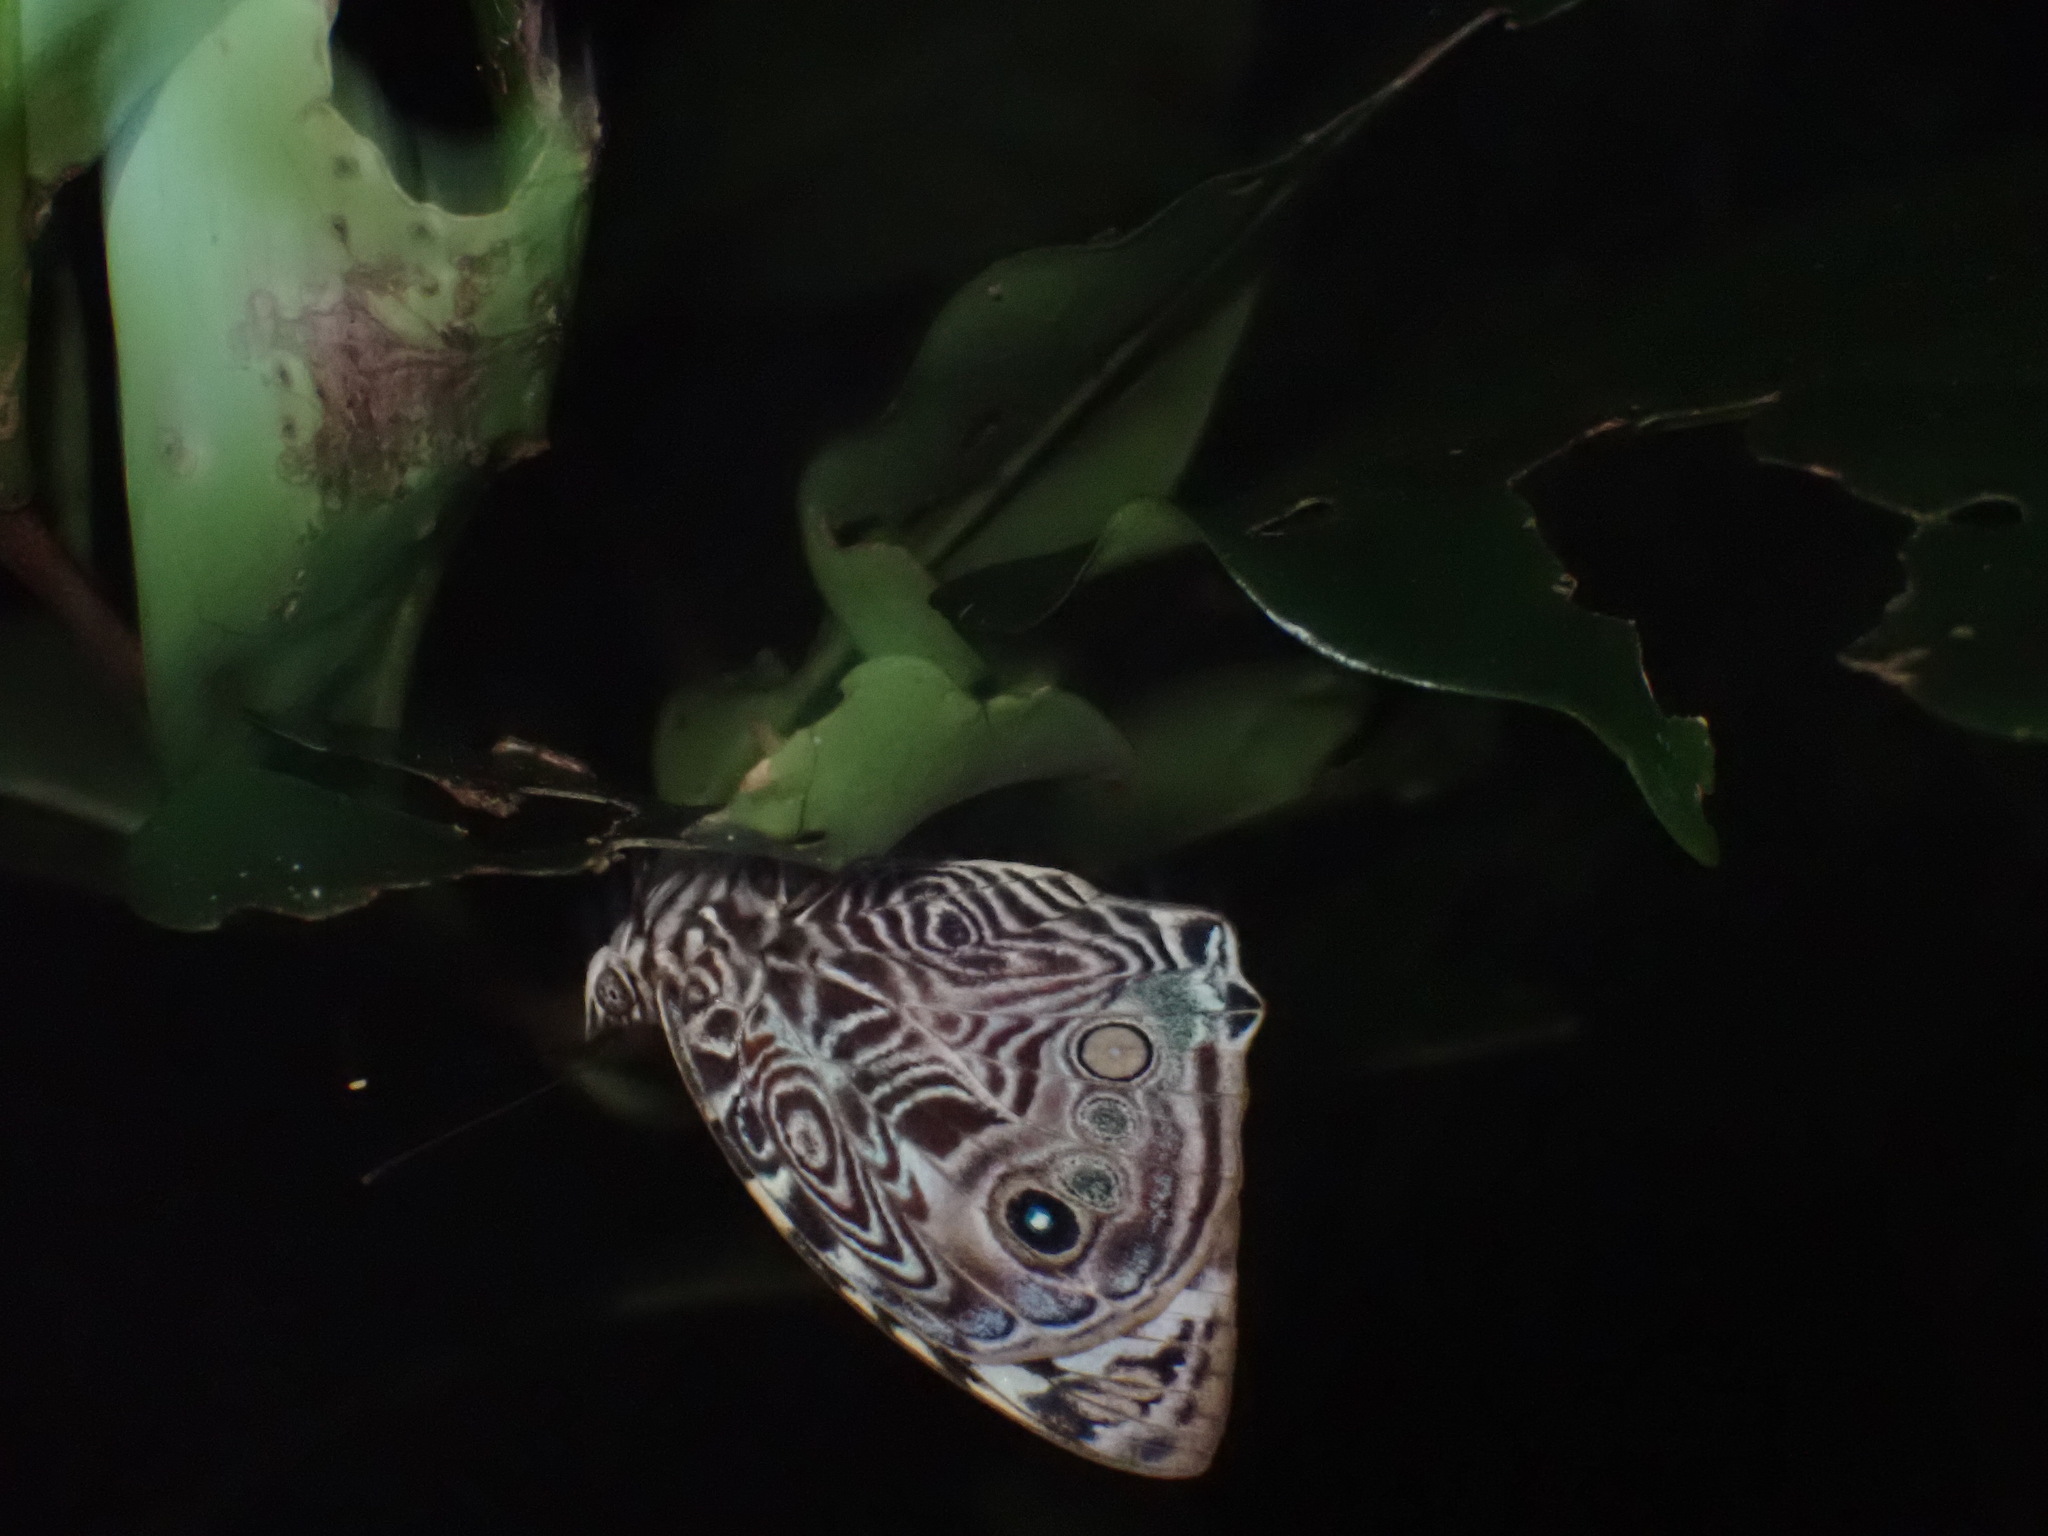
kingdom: Animalia
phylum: Arthropoda
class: Insecta
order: Lepidoptera
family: Nymphalidae
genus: Smyrna
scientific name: Smyrna blomfildia
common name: Blomfild's beauty
